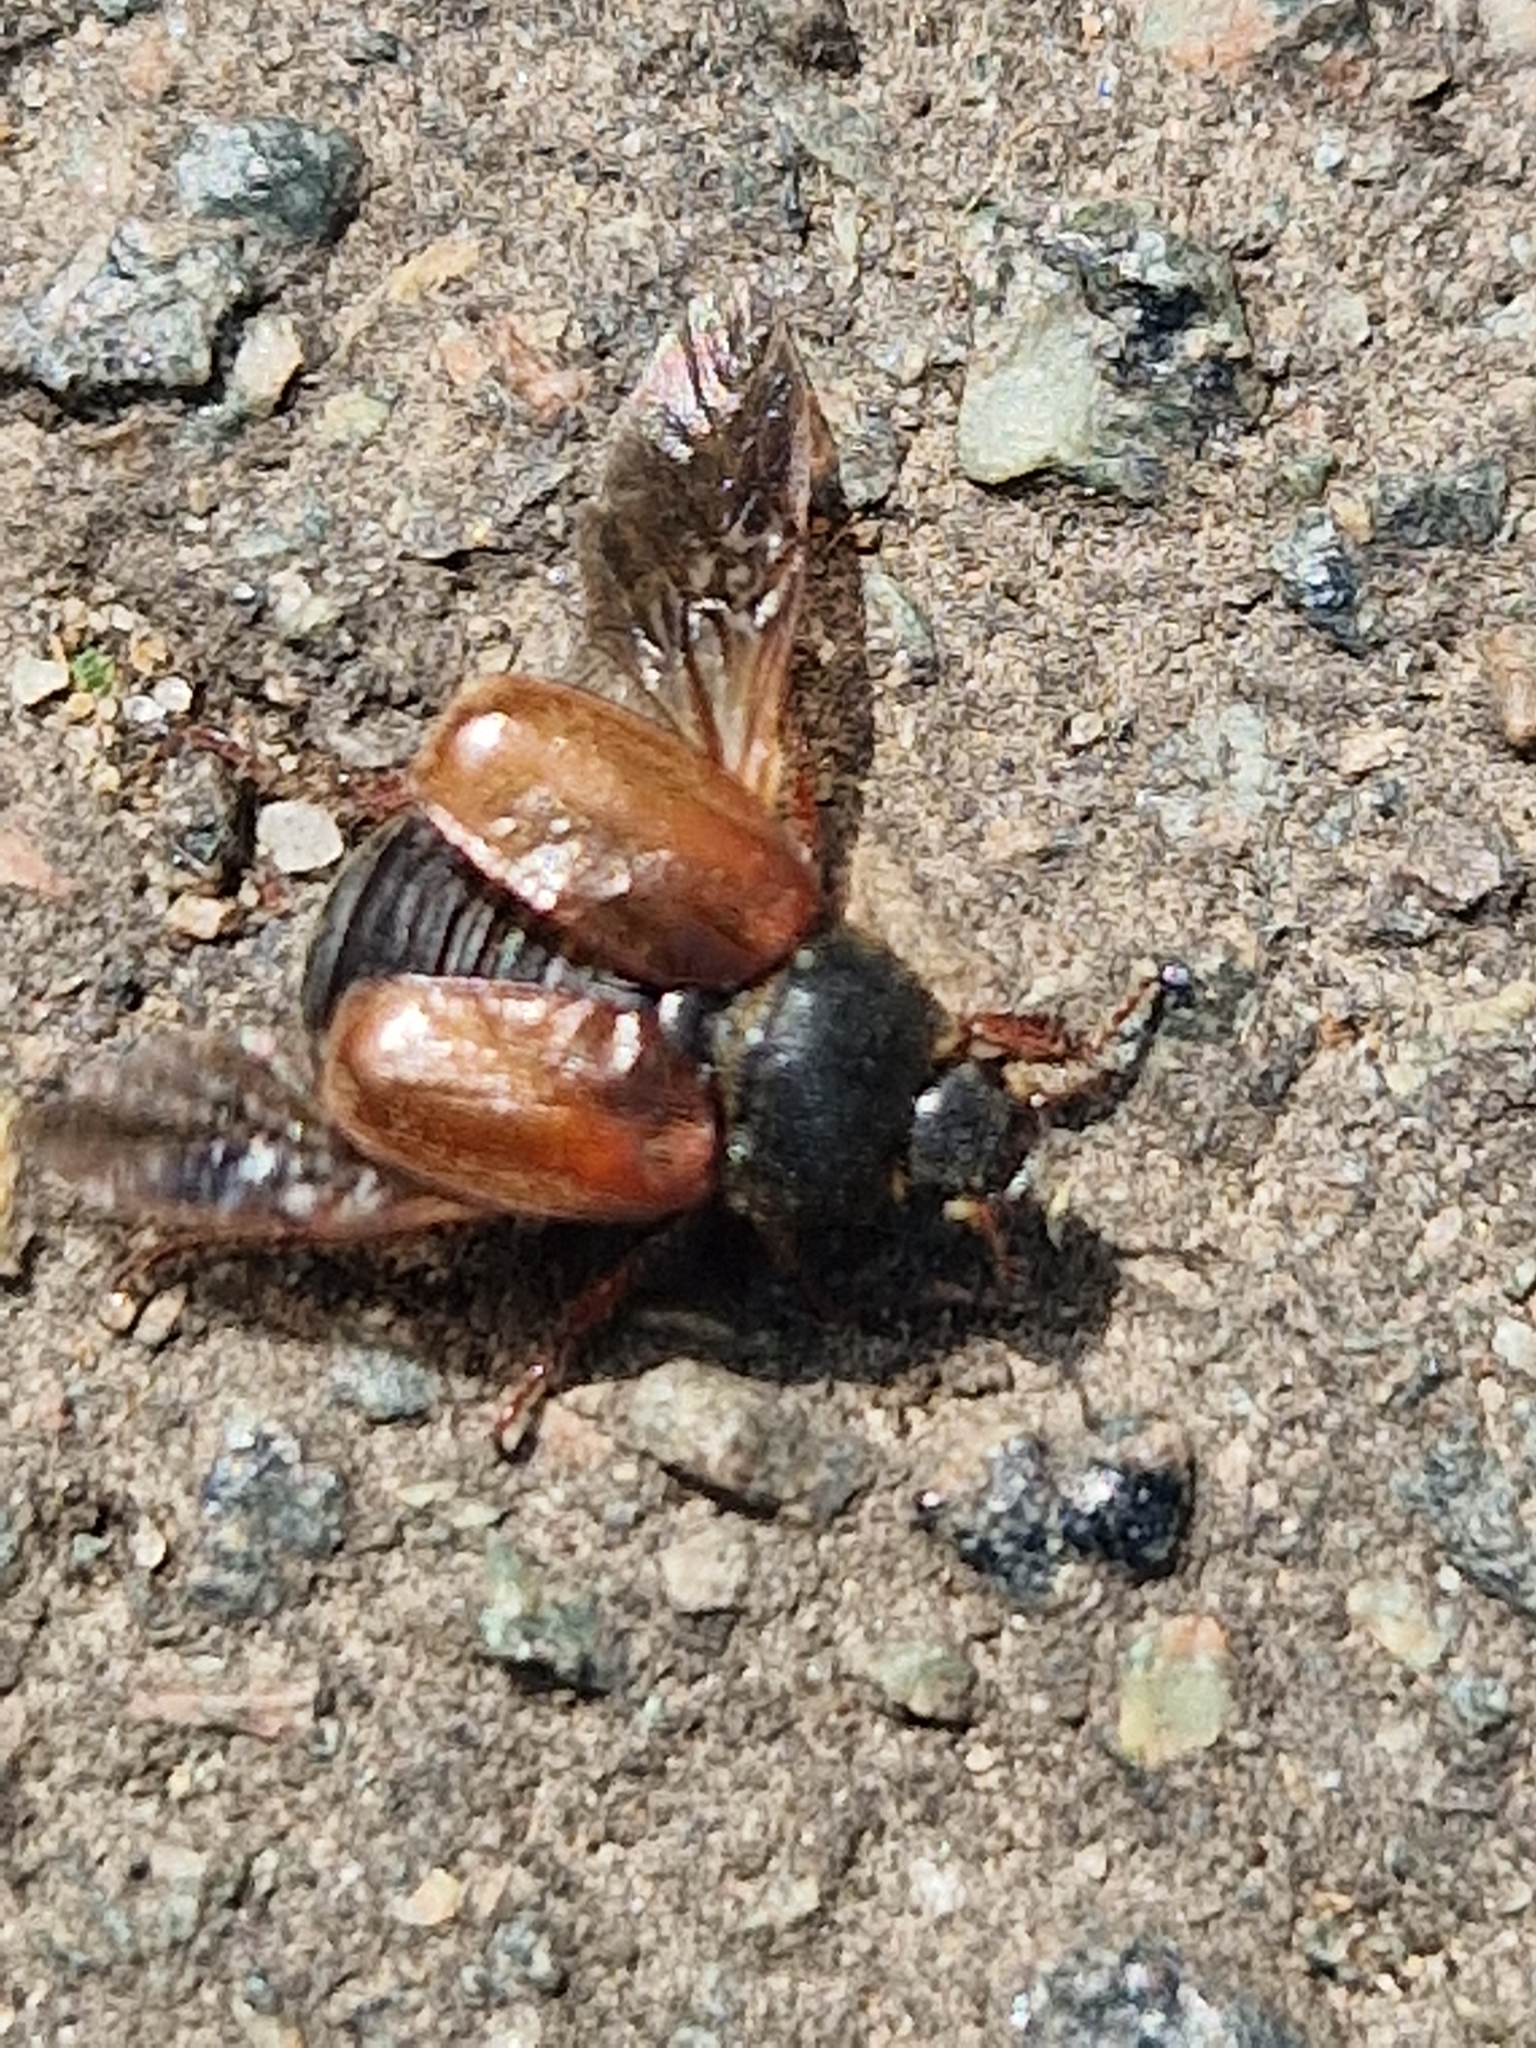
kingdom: Animalia
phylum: Arthropoda
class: Insecta
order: Coleoptera
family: Scarabaeidae
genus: Hoplia
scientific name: Hoplia philanthus
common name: Welsh chafer
